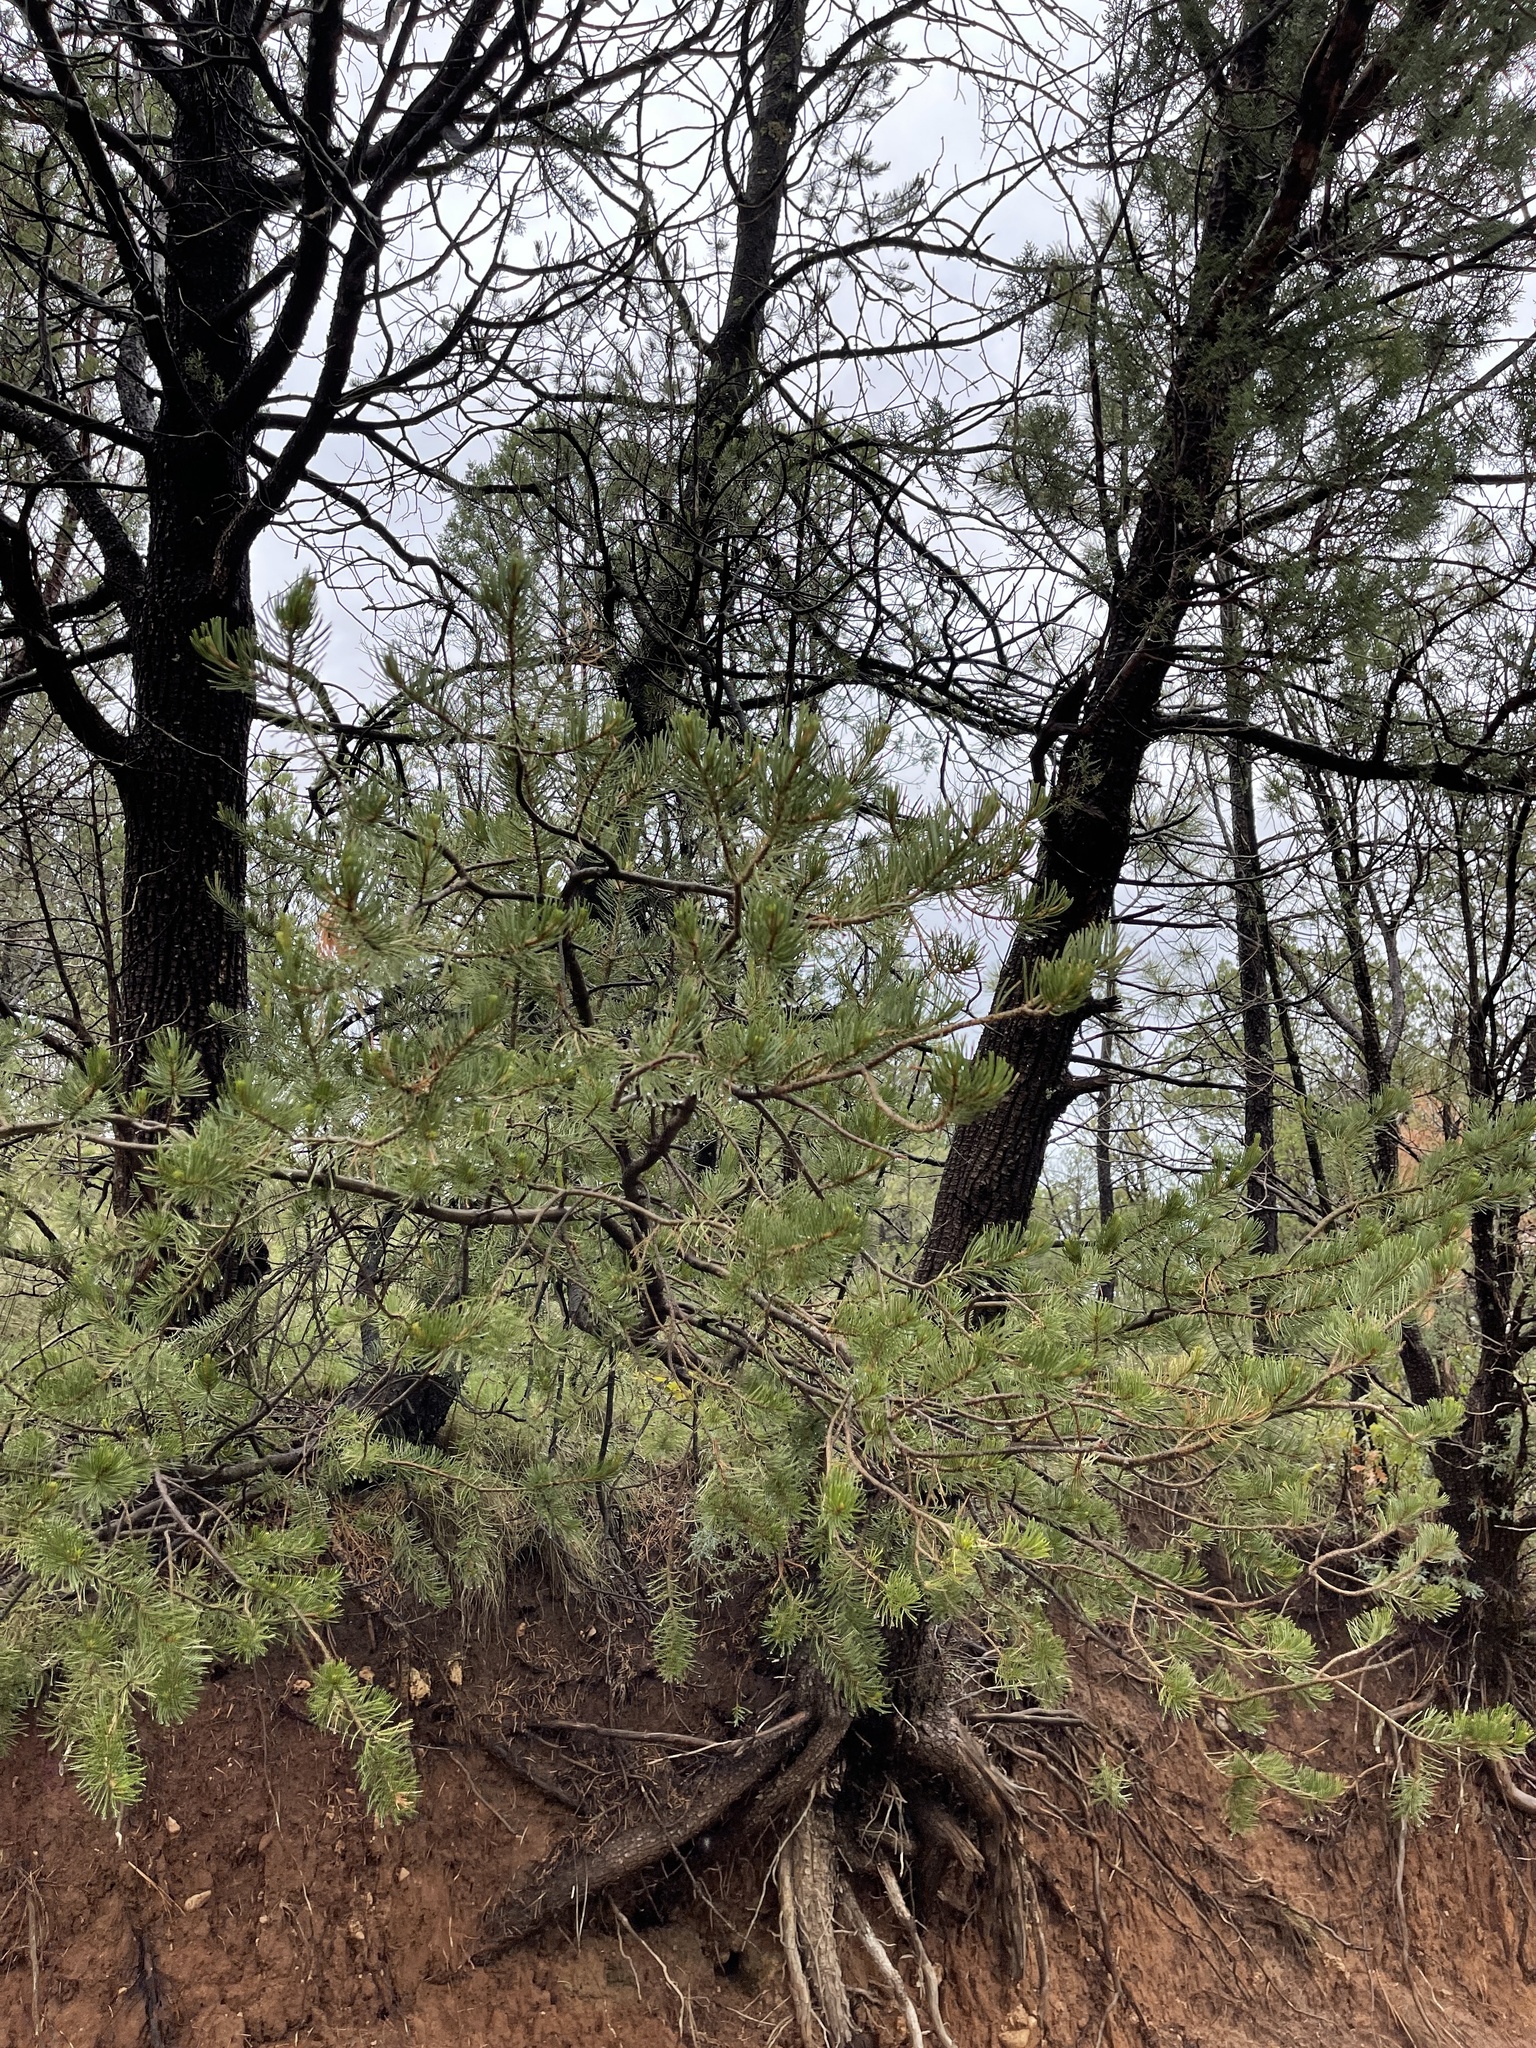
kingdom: Plantae
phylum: Tracheophyta
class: Pinopsida
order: Pinales
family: Pinaceae
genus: Pinus
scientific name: Pinus edulis
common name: Colorado pinyon
